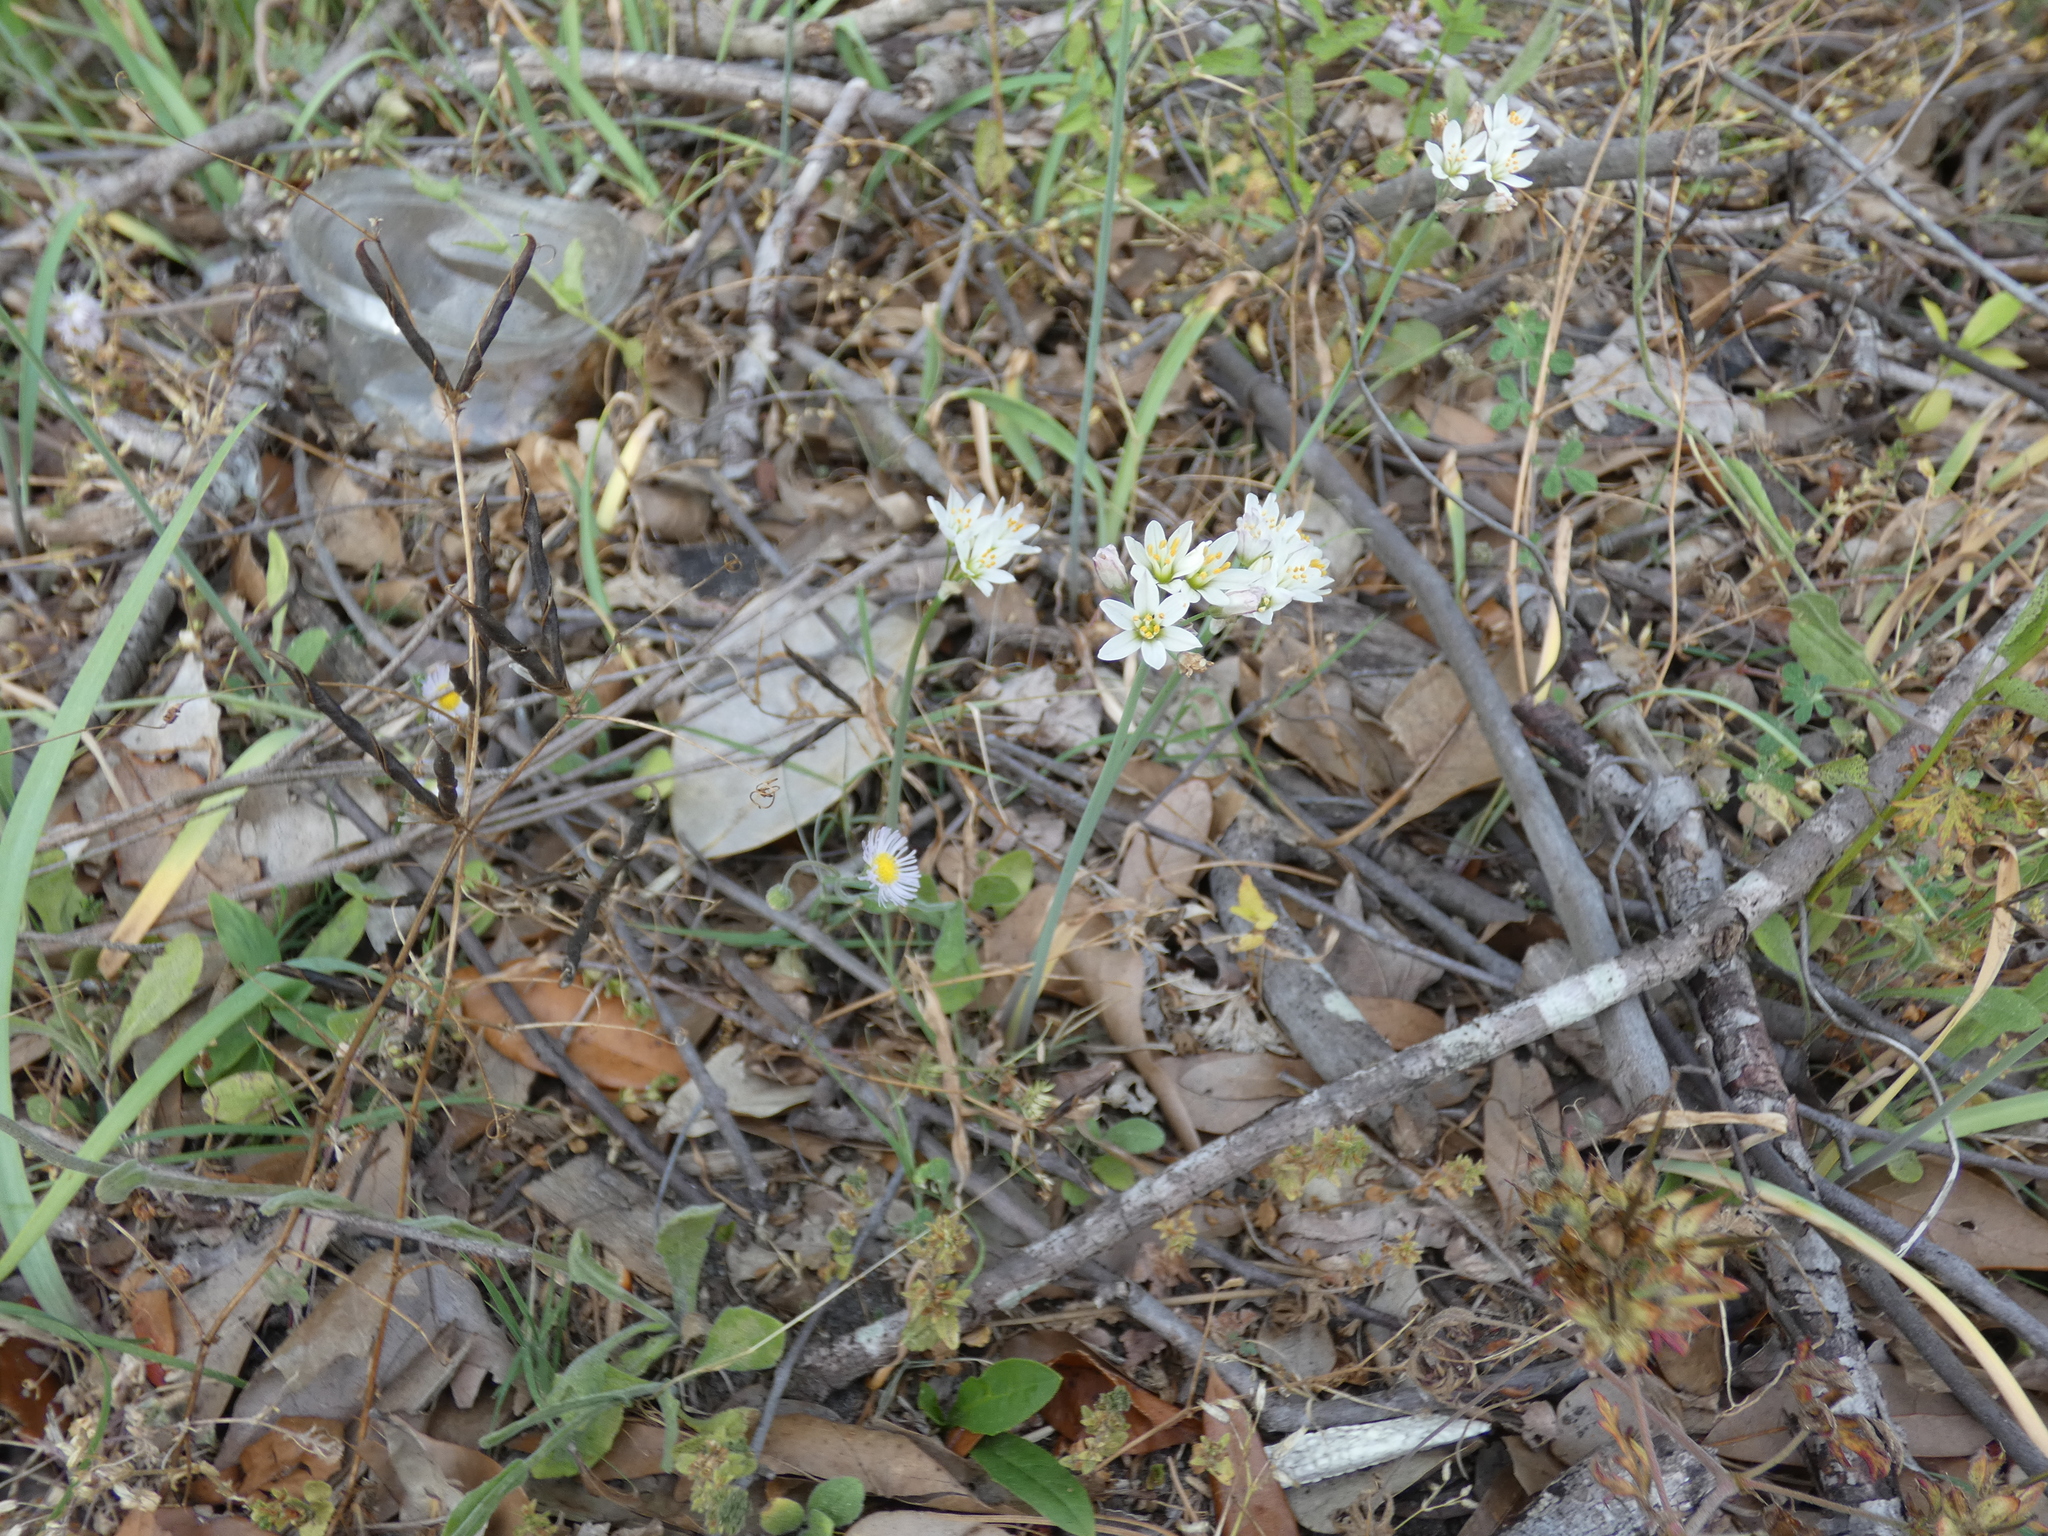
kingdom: Plantae
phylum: Tracheophyta
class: Liliopsida
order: Asparagales
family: Amaryllidaceae
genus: Nothoscordum
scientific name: Nothoscordum bivalve
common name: Crow-poison
